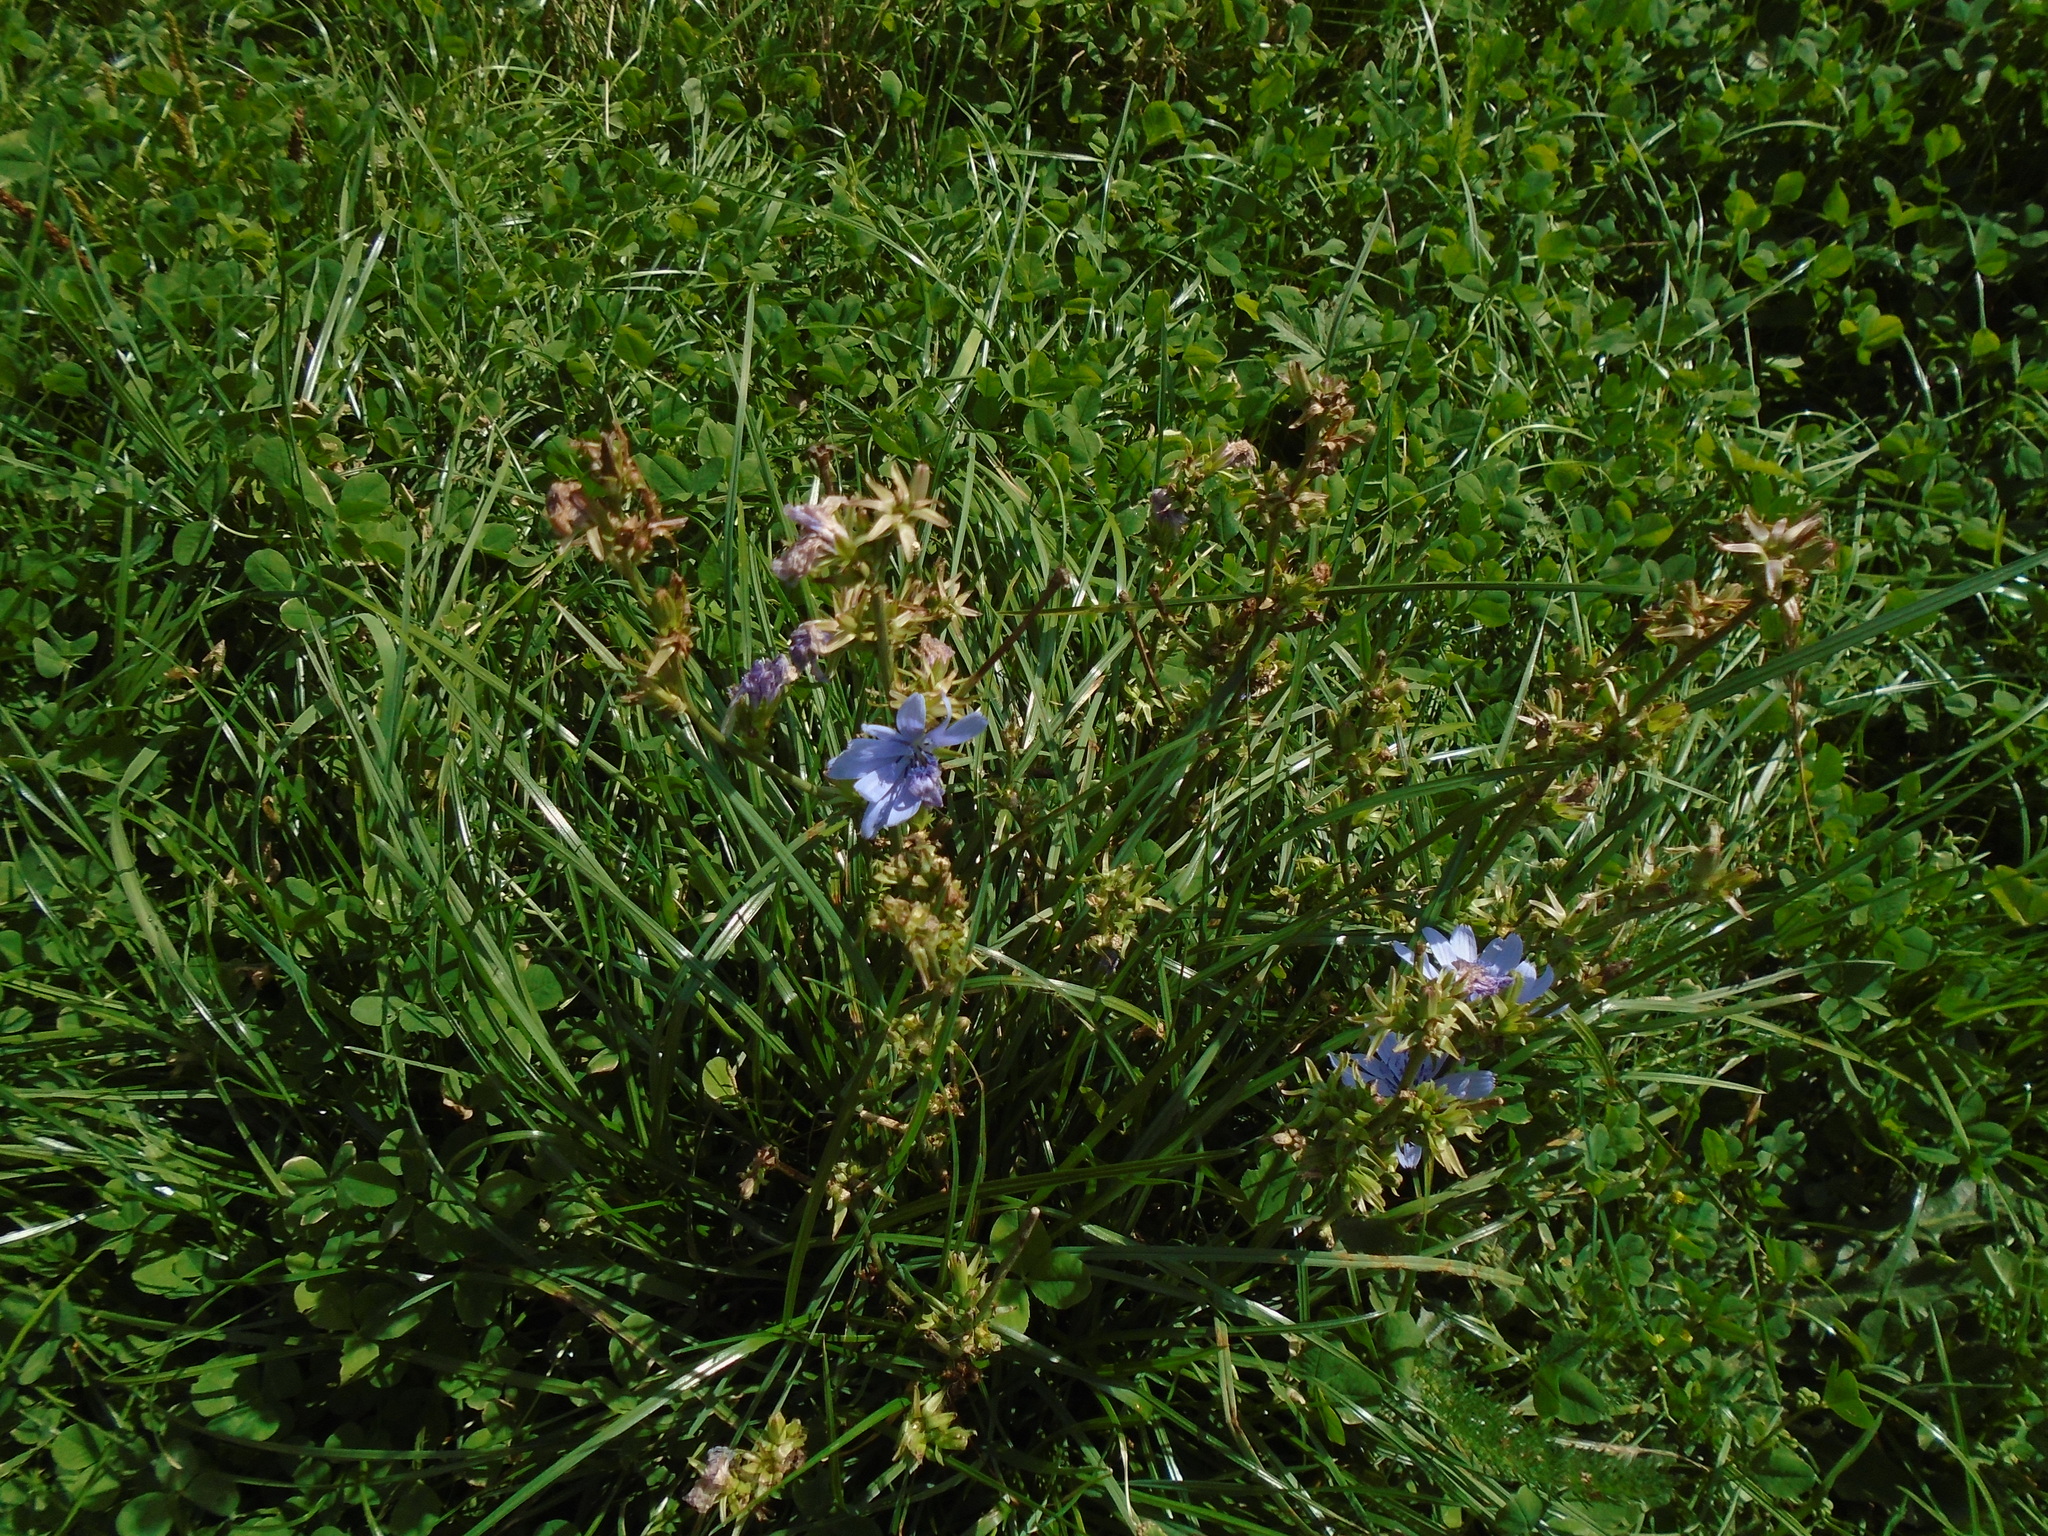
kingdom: Plantae
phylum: Tracheophyta
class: Magnoliopsida
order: Asterales
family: Asteraceae
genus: Cichorium
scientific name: Cichorium intybus
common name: Chicory
